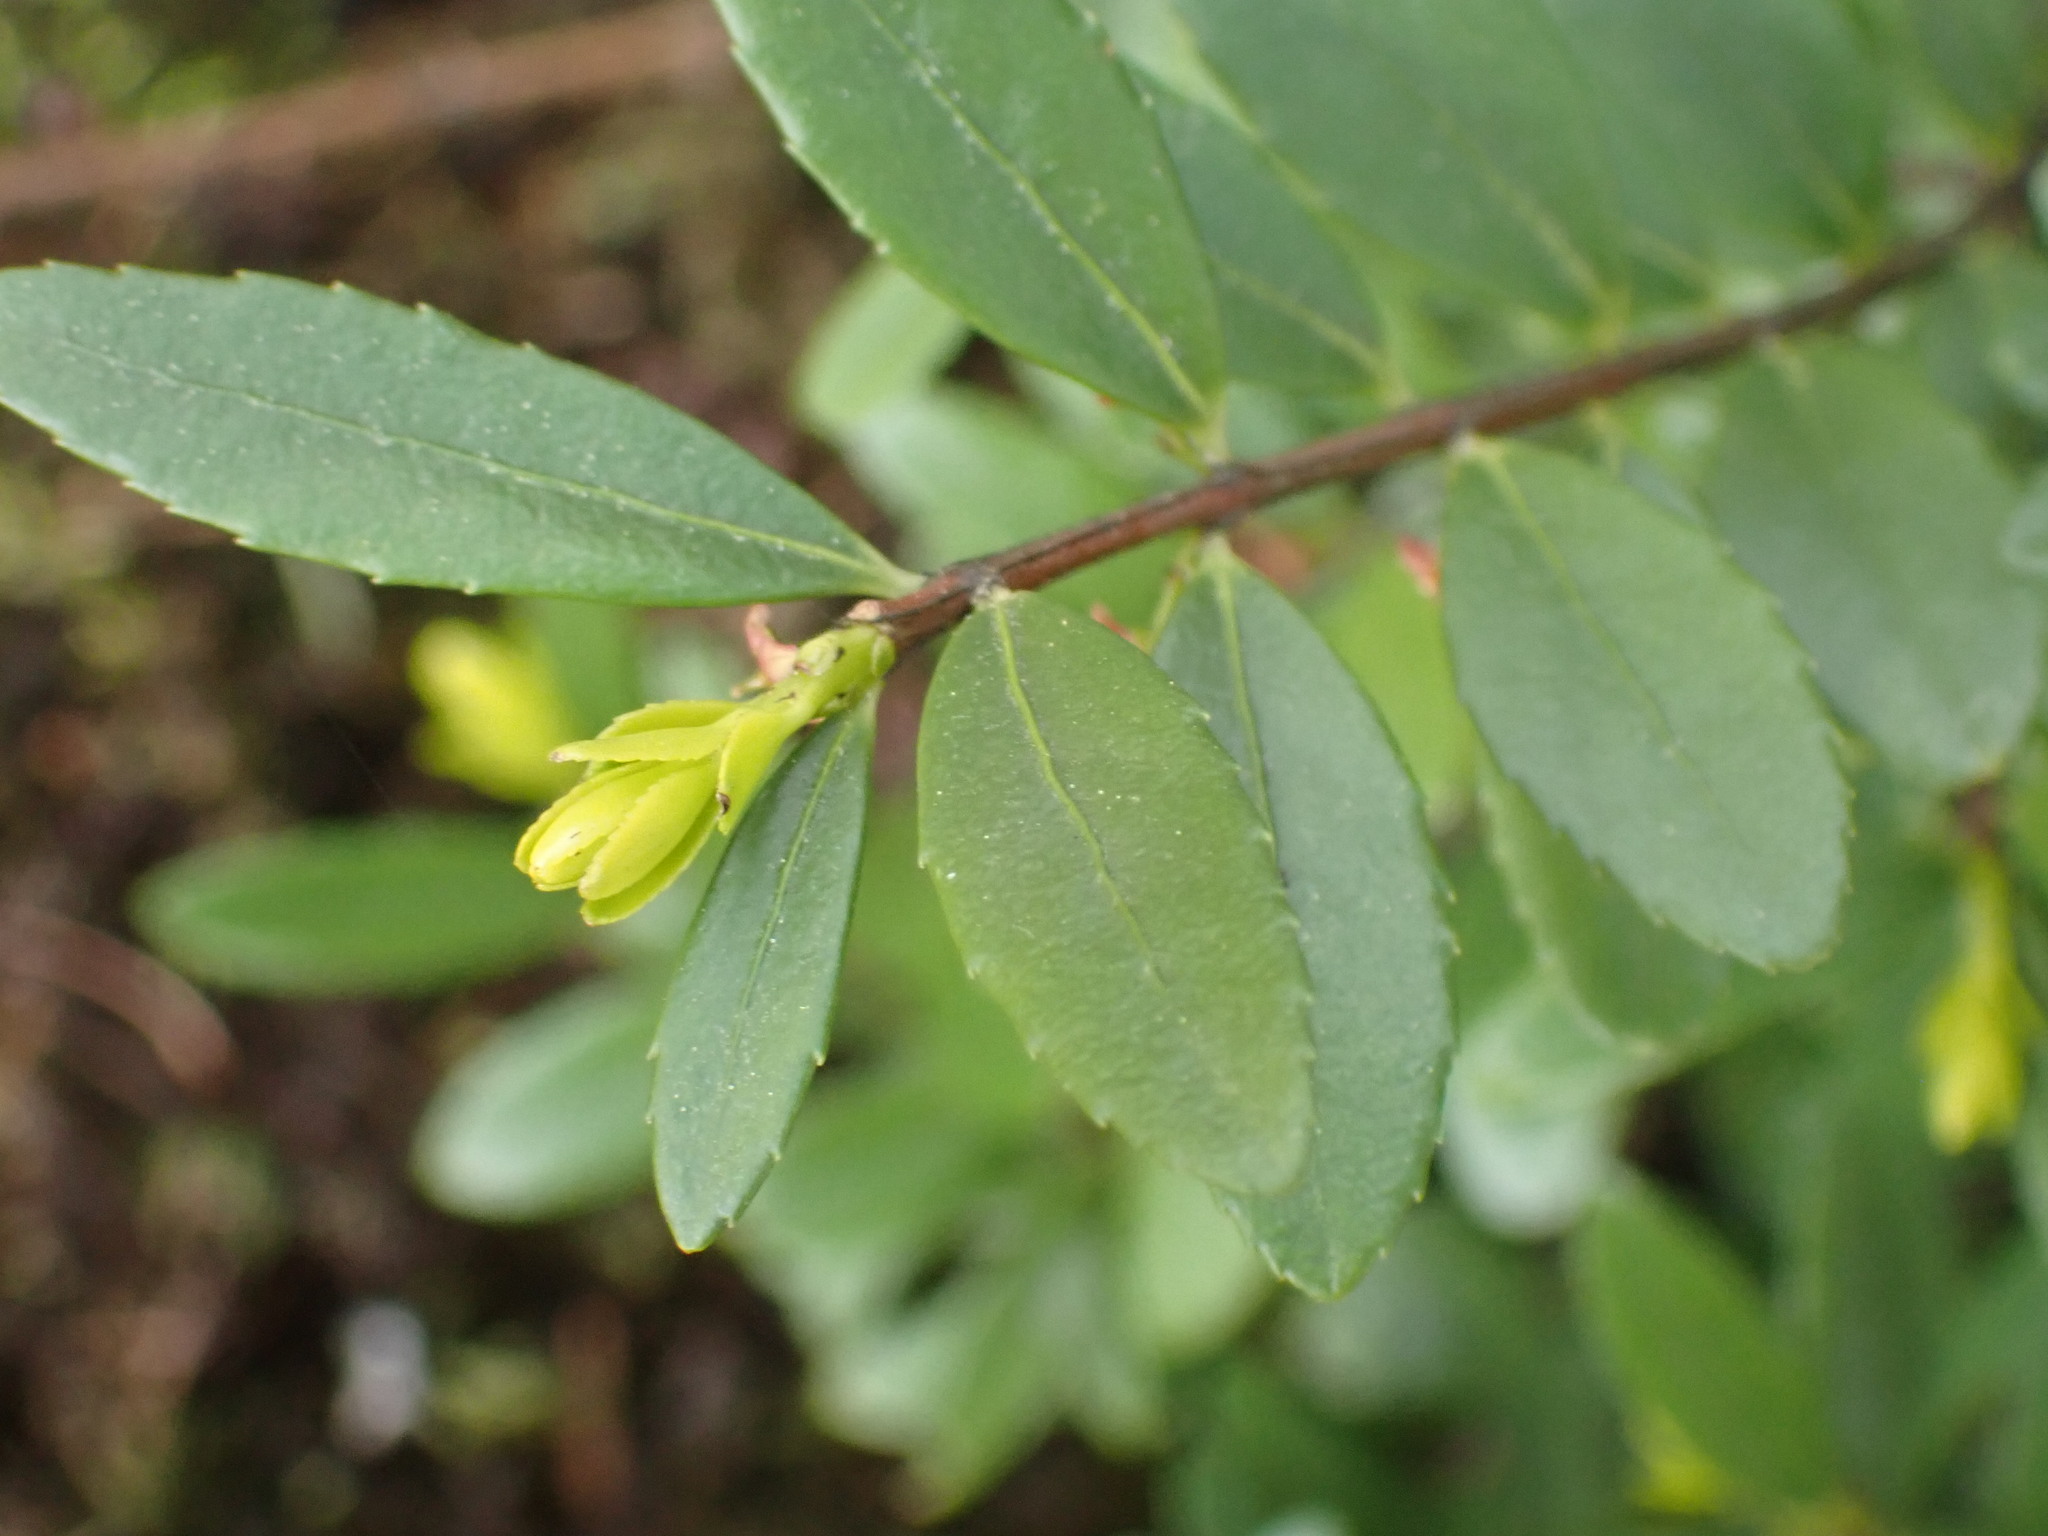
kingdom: Plantae
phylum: Tracheophyta
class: Magnoliopsida
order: Celastrales
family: Celastraceae
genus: Paxistima
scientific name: Paxistima myrsinites
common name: Mountain-lover
